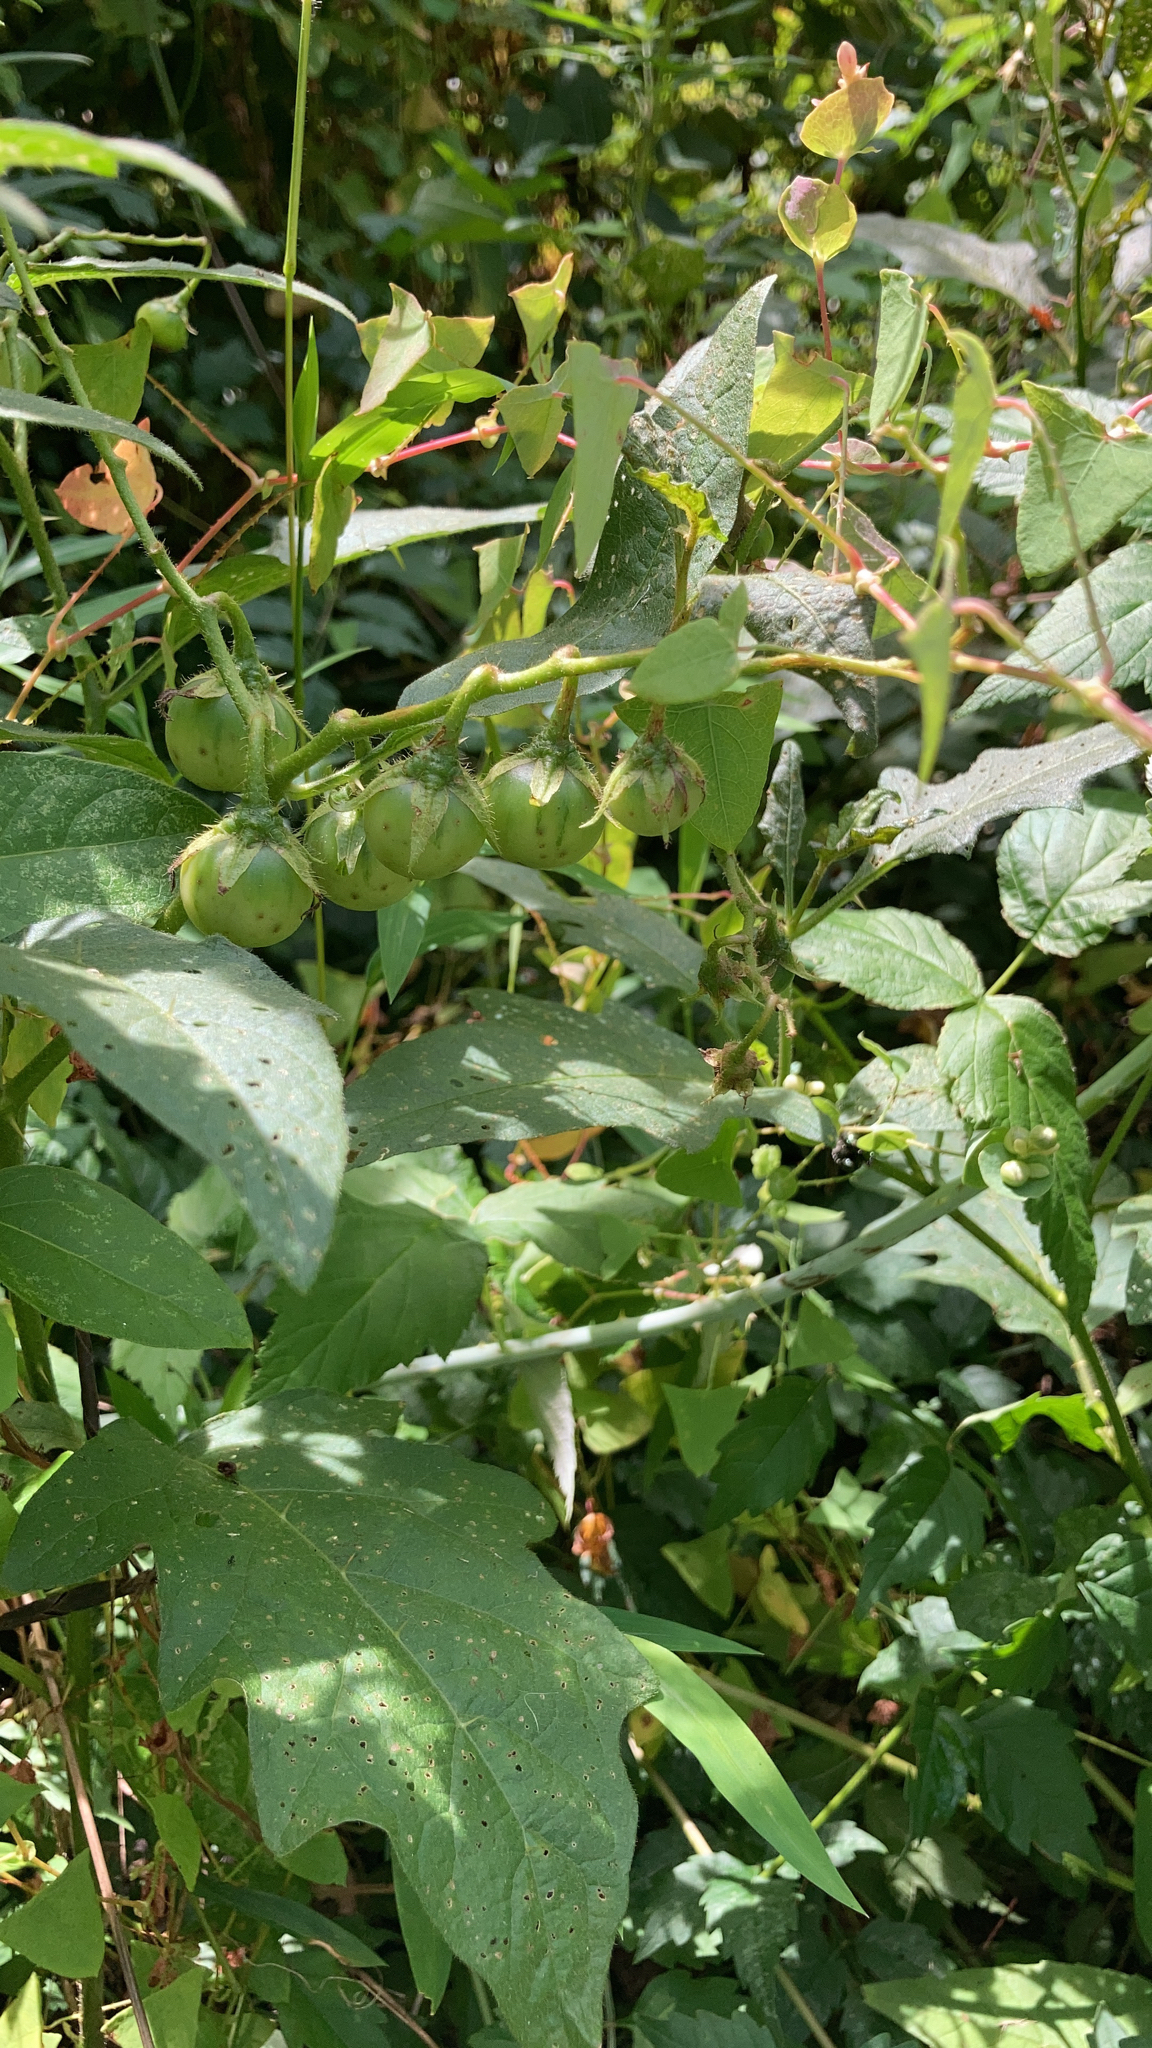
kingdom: Plantae
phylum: Tracheophyta
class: Magnoliopsida
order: Solanales
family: Solanaceae
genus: Solanum
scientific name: Solanum carolinense
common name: Horse-nettle
